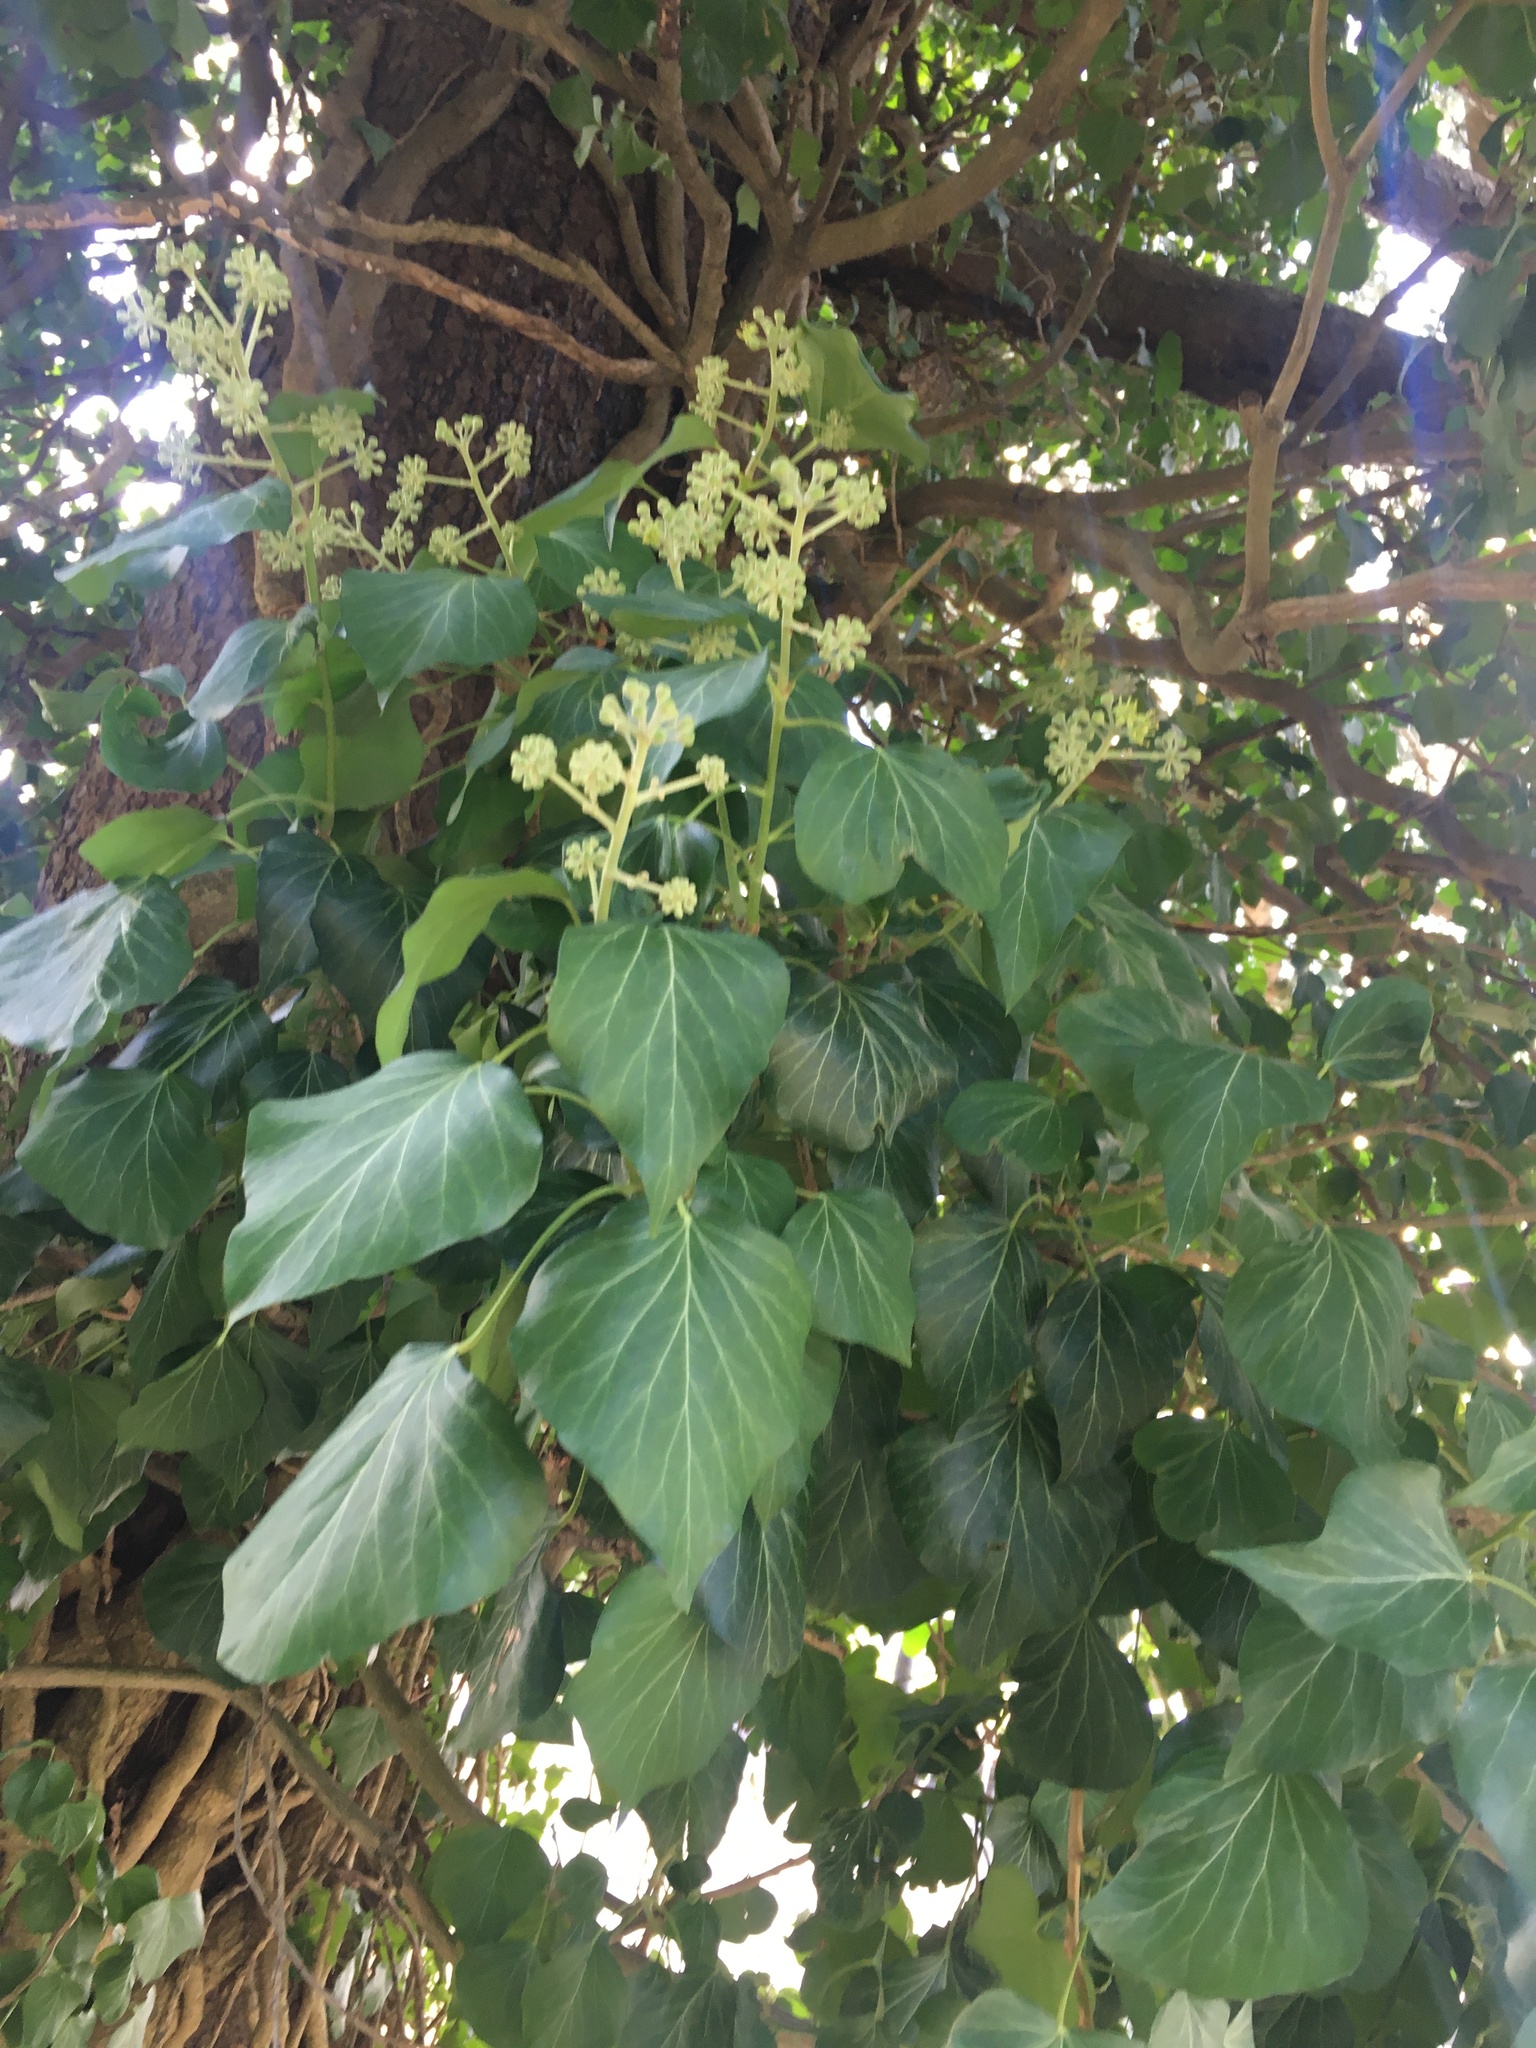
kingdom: Plantae
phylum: Tracheophyta
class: Magnoliopsida
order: Apiales
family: Araliaceae
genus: Hedera
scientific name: Hedera helix
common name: Ivy
